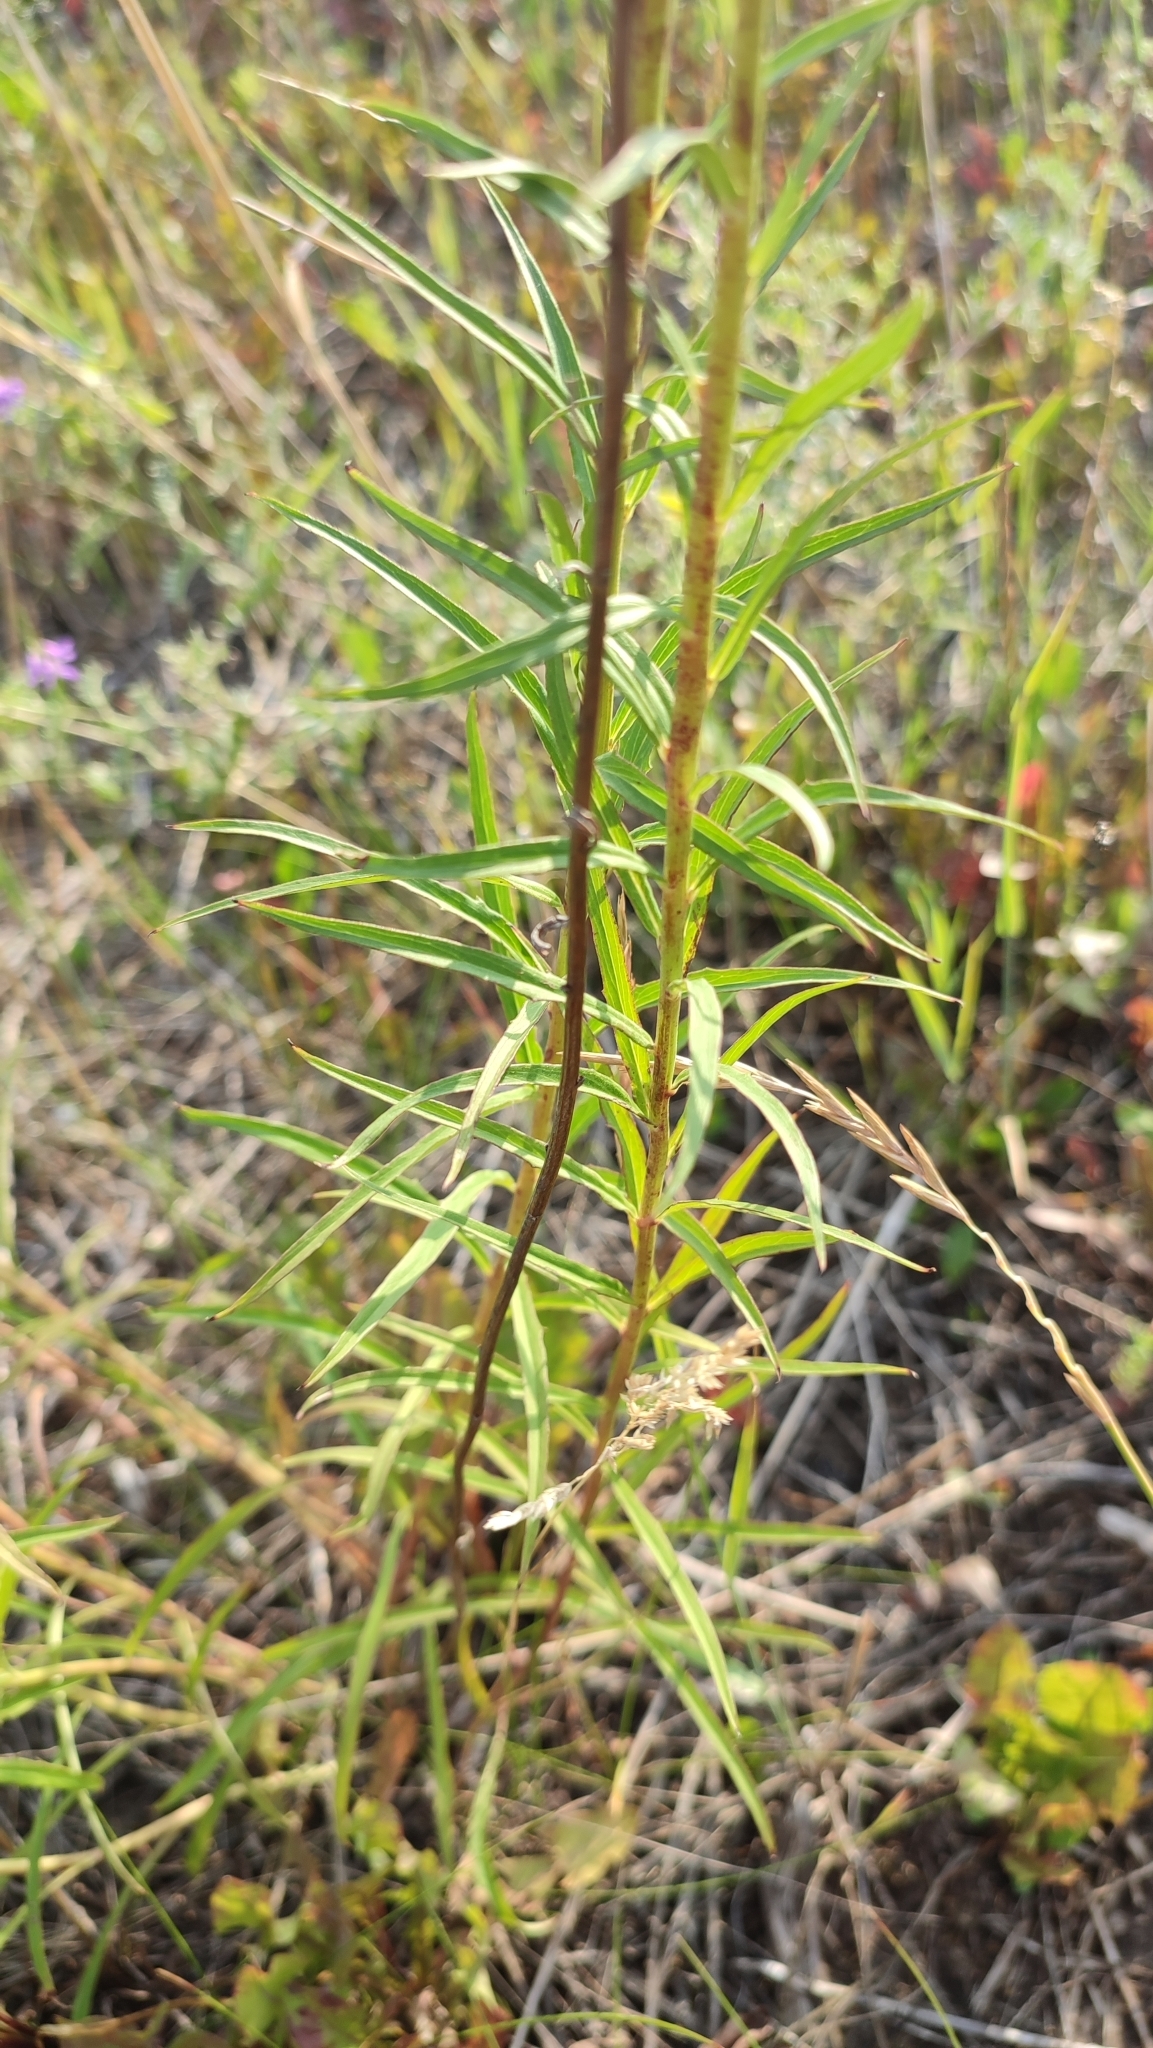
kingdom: Plantae
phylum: Tracheophyta
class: Magnoliopsida
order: Asterales
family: Asteraceae
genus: Hieracium
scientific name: Hieracium umbellatum
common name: Northern hawkweed
